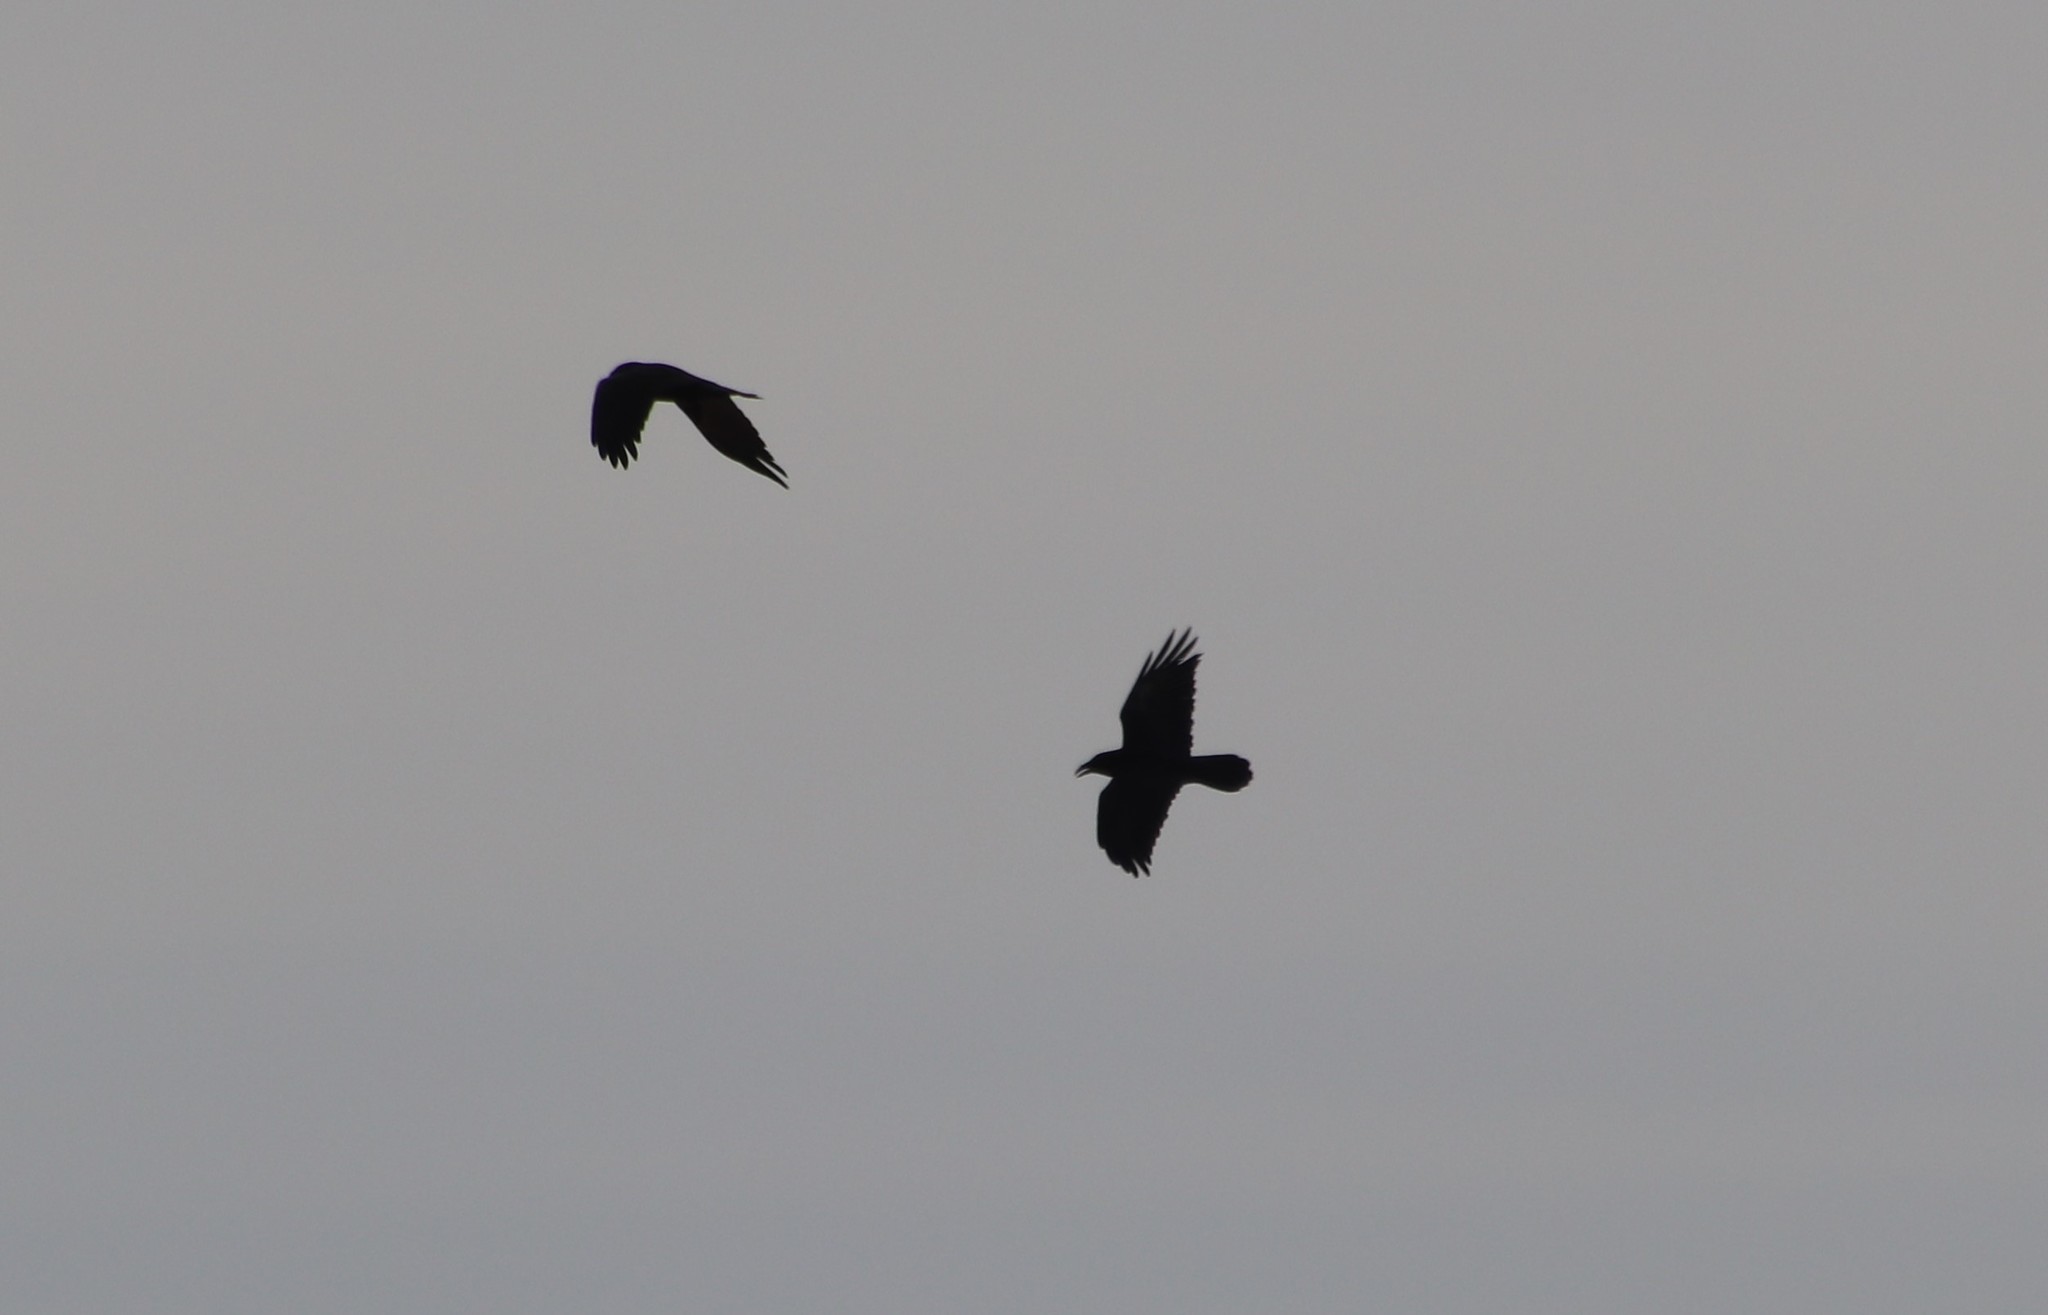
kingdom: Animalia
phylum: Chordata
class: Aves
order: Passeriformes
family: Corvidae
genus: Corvus
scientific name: Corvus corax
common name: Common raven
